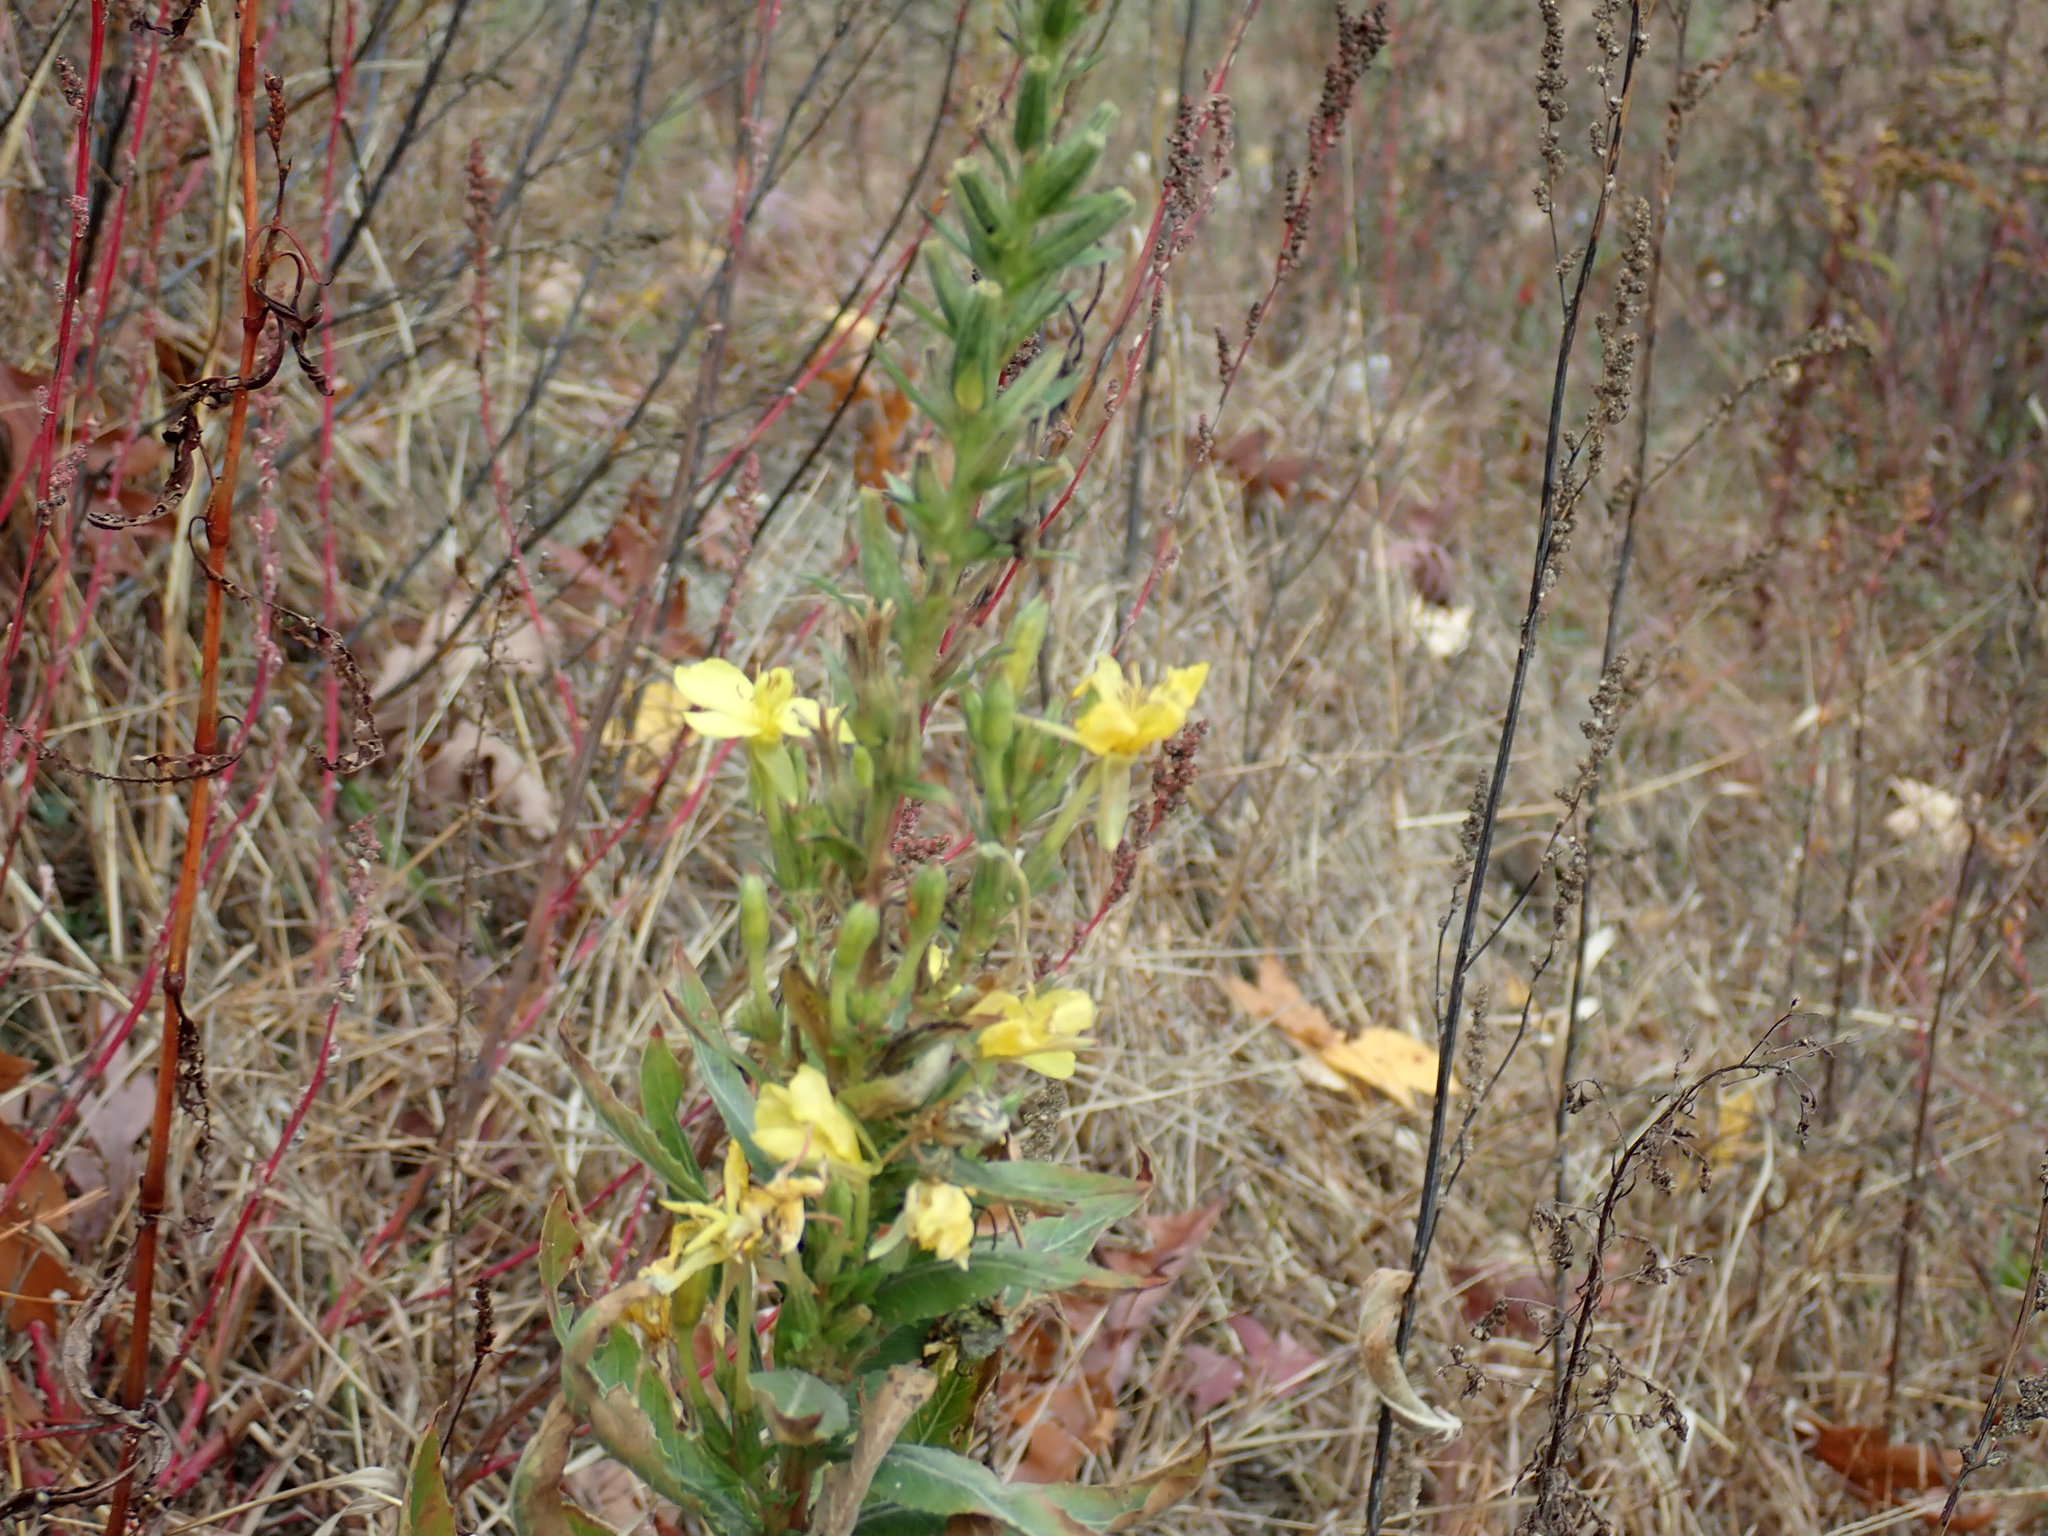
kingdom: Plantae
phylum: Tracheophyta
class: Magnoliopsida
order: Myrtales
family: Onagraceae
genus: Oenothera
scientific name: Oenothera biennis
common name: Common evening-primrose
